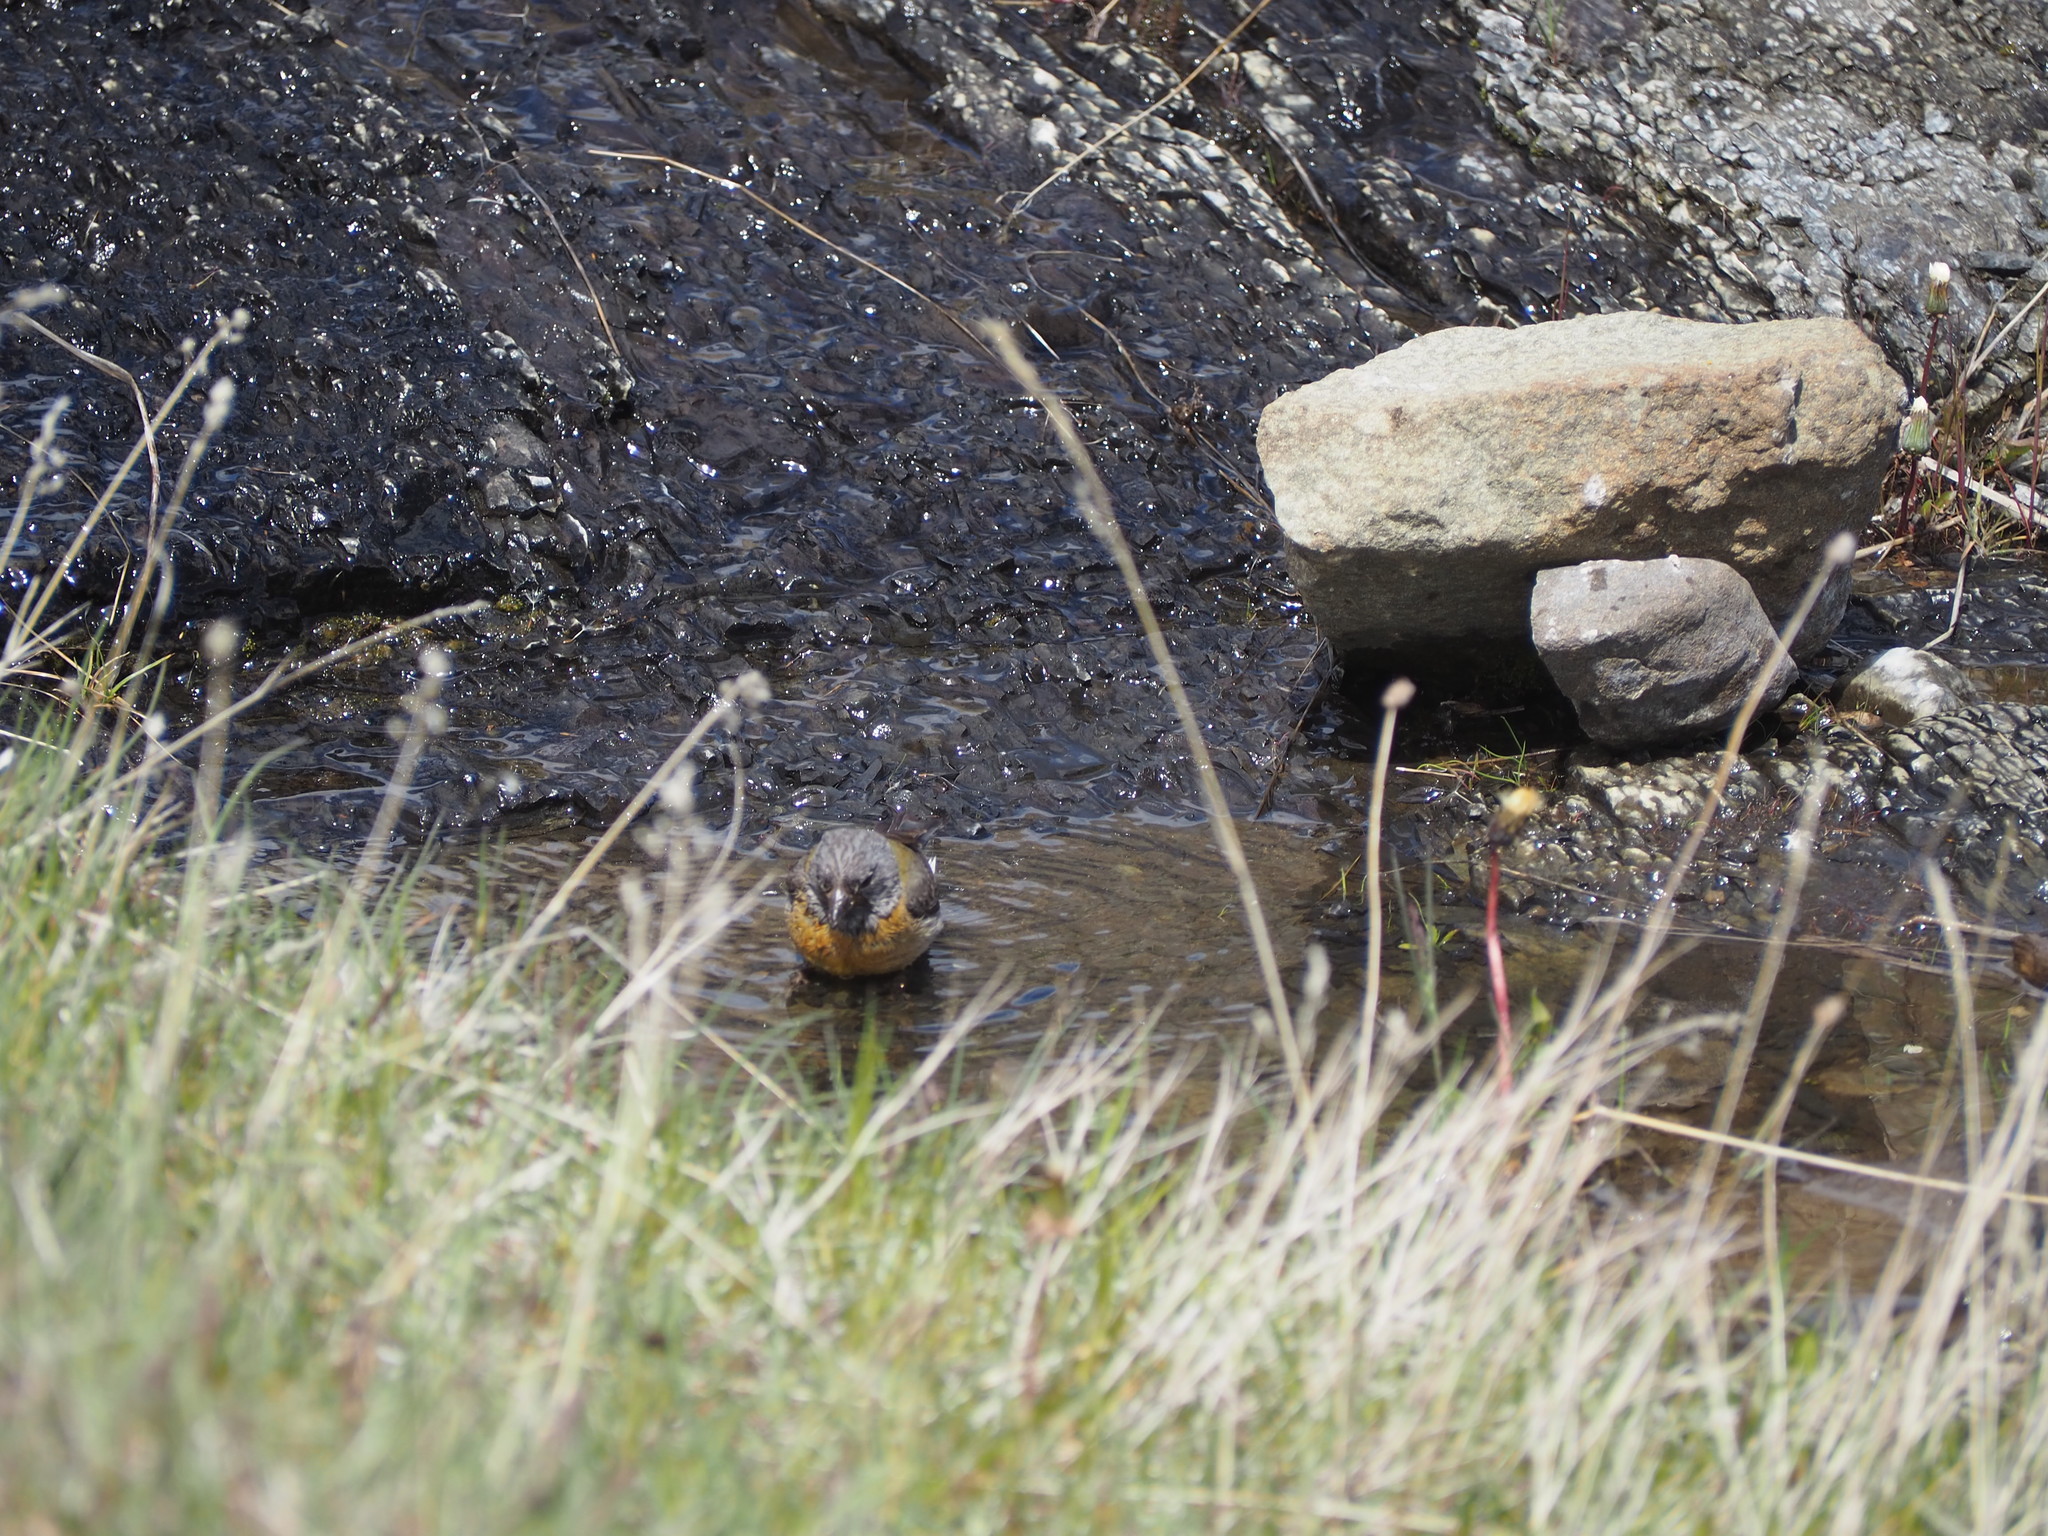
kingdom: Animalia
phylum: Chordata
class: Aves
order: Passeriformes
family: Thraupidae
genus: Phrygilus
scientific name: Phrygilus gayi
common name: Grey-hooded sierra finch
